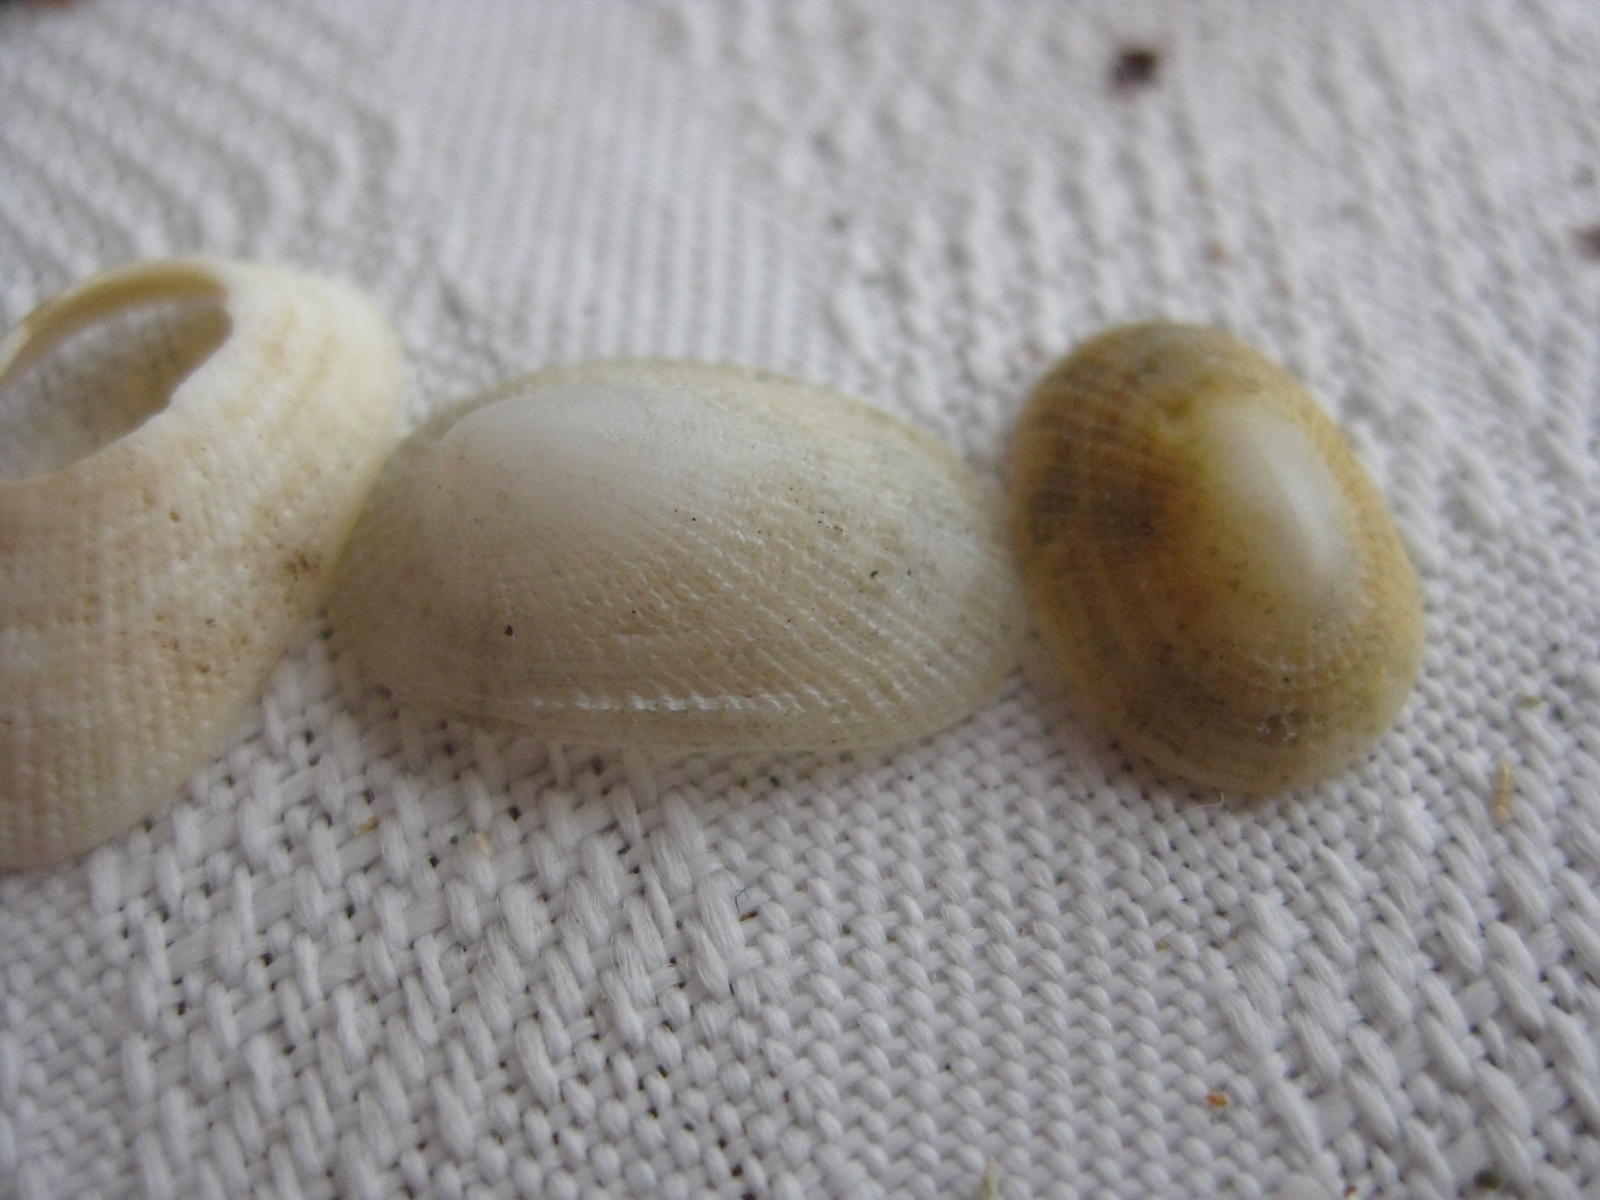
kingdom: Animalia
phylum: Mollusca
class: Gastropoda
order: Lepetellida
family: Fissurellidae
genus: Tugali
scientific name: Tugali suteri
